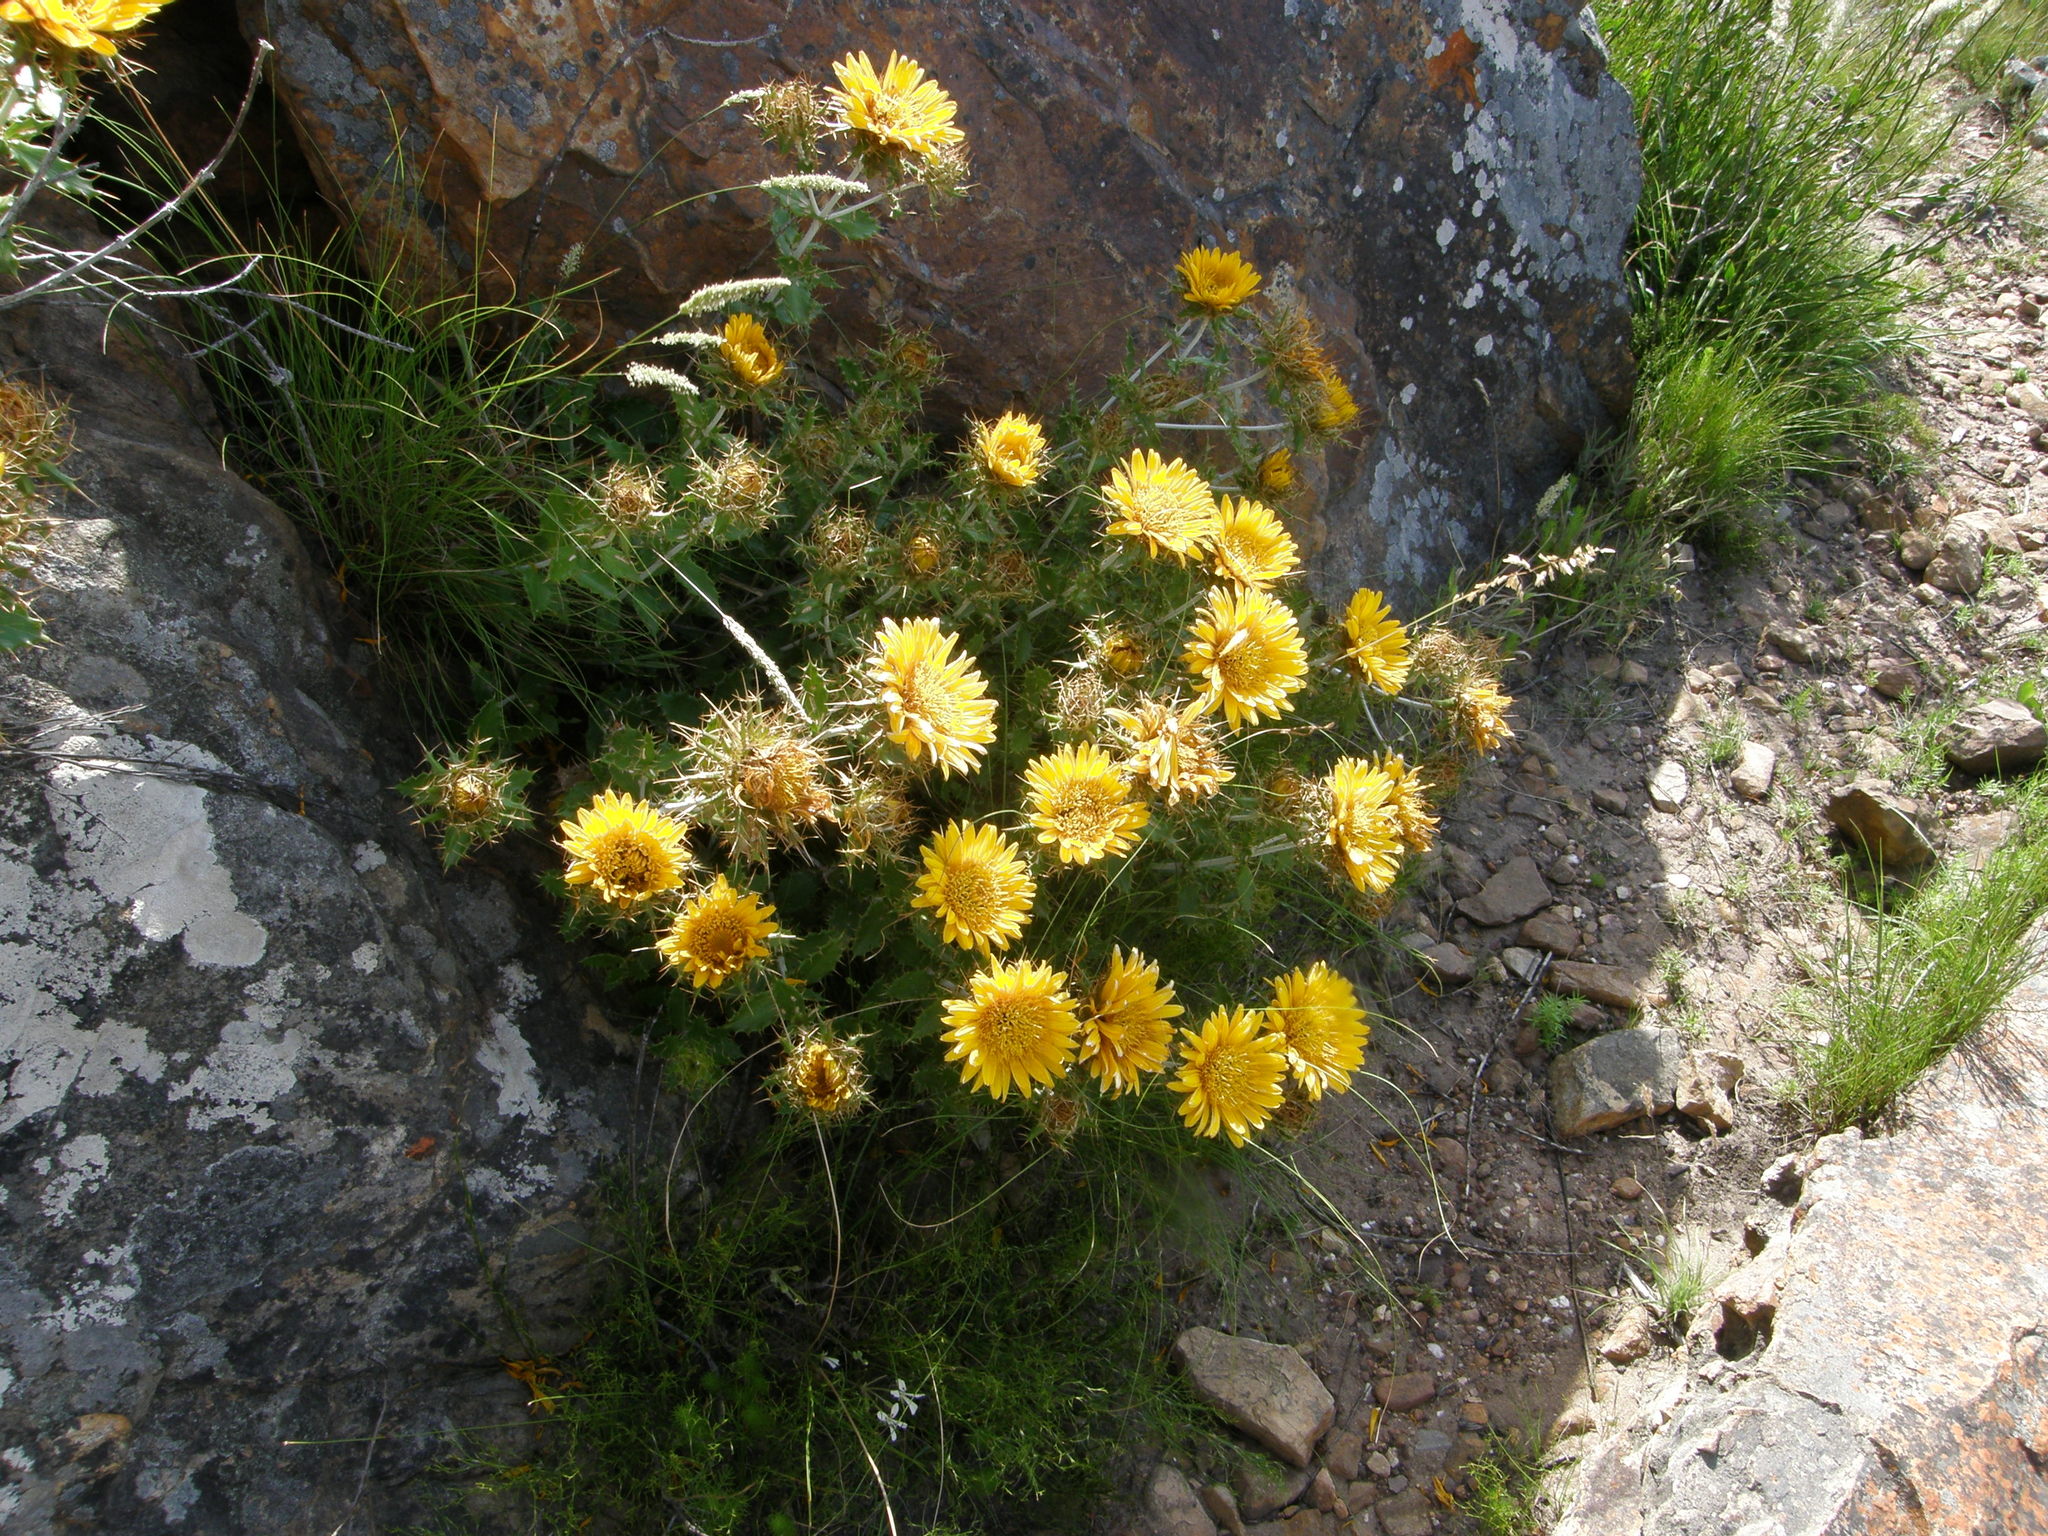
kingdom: Plantae
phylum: Tracheophyta
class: Magnoliopsida
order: Asterales
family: Asteraceae
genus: Berkheya
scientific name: Berkheya barbata
